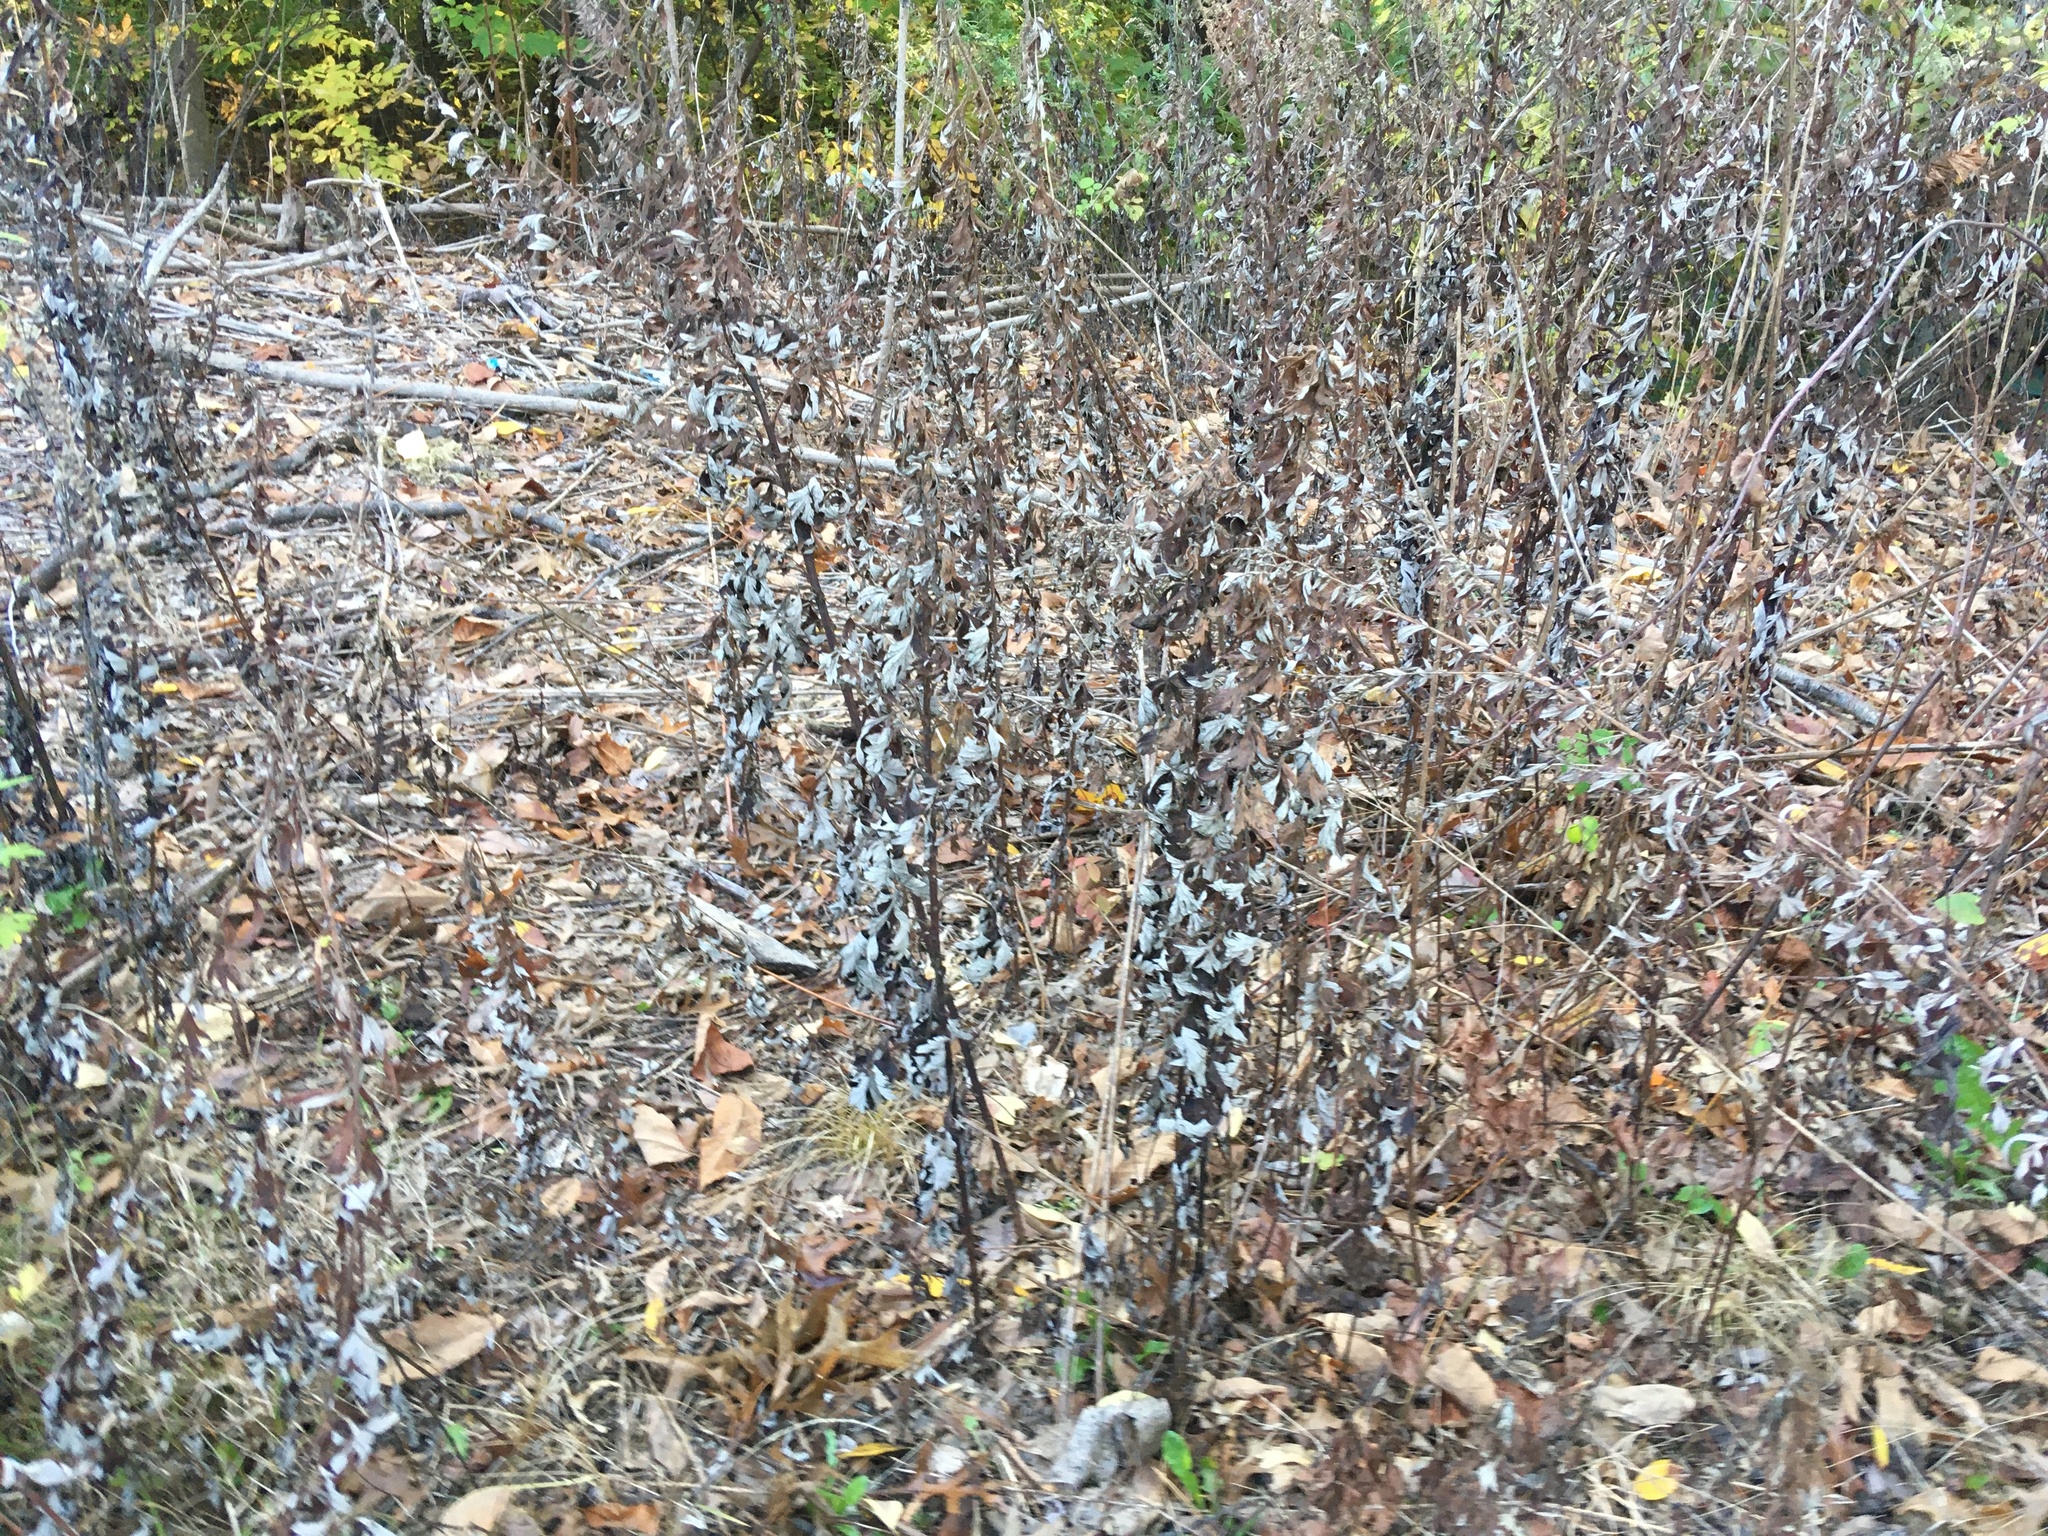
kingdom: Plantae
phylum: Tracheophyta
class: Magnoliopsida
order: Asterales
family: Asteraceae
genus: Artemisia
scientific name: Artemisia vulgaris
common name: Mugwort
